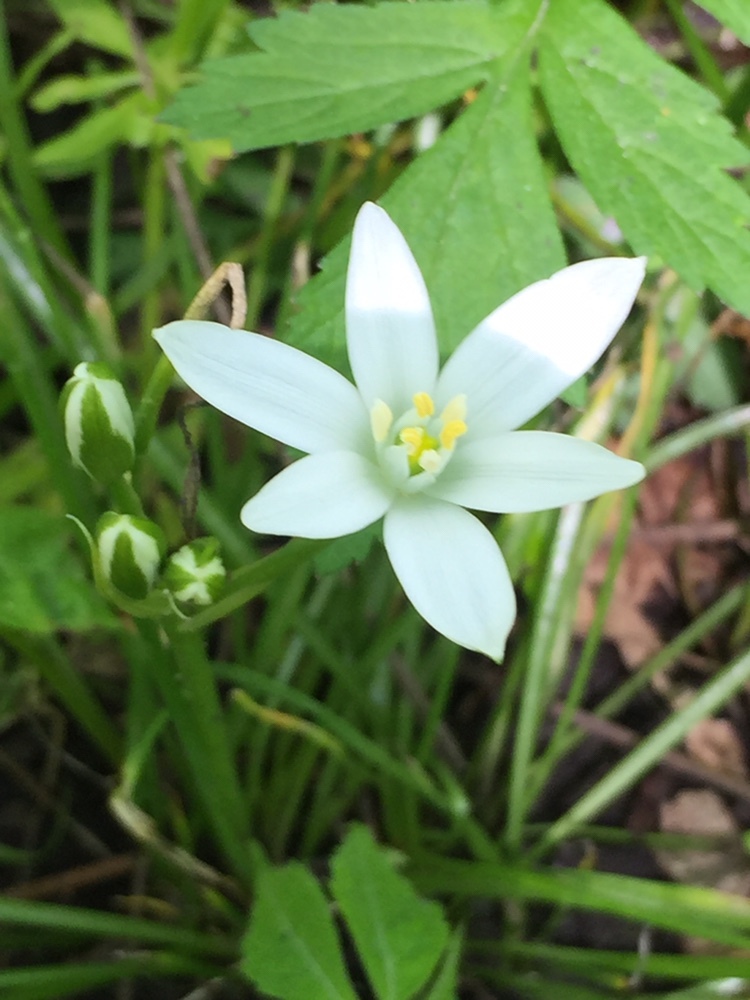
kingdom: Plantae
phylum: Tracheophyta
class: Liliopsida
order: Asparagales
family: Asparagaceae
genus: Ornithogalum
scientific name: Ornithogalum umbellatum
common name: Garden star-of-bethlehem
